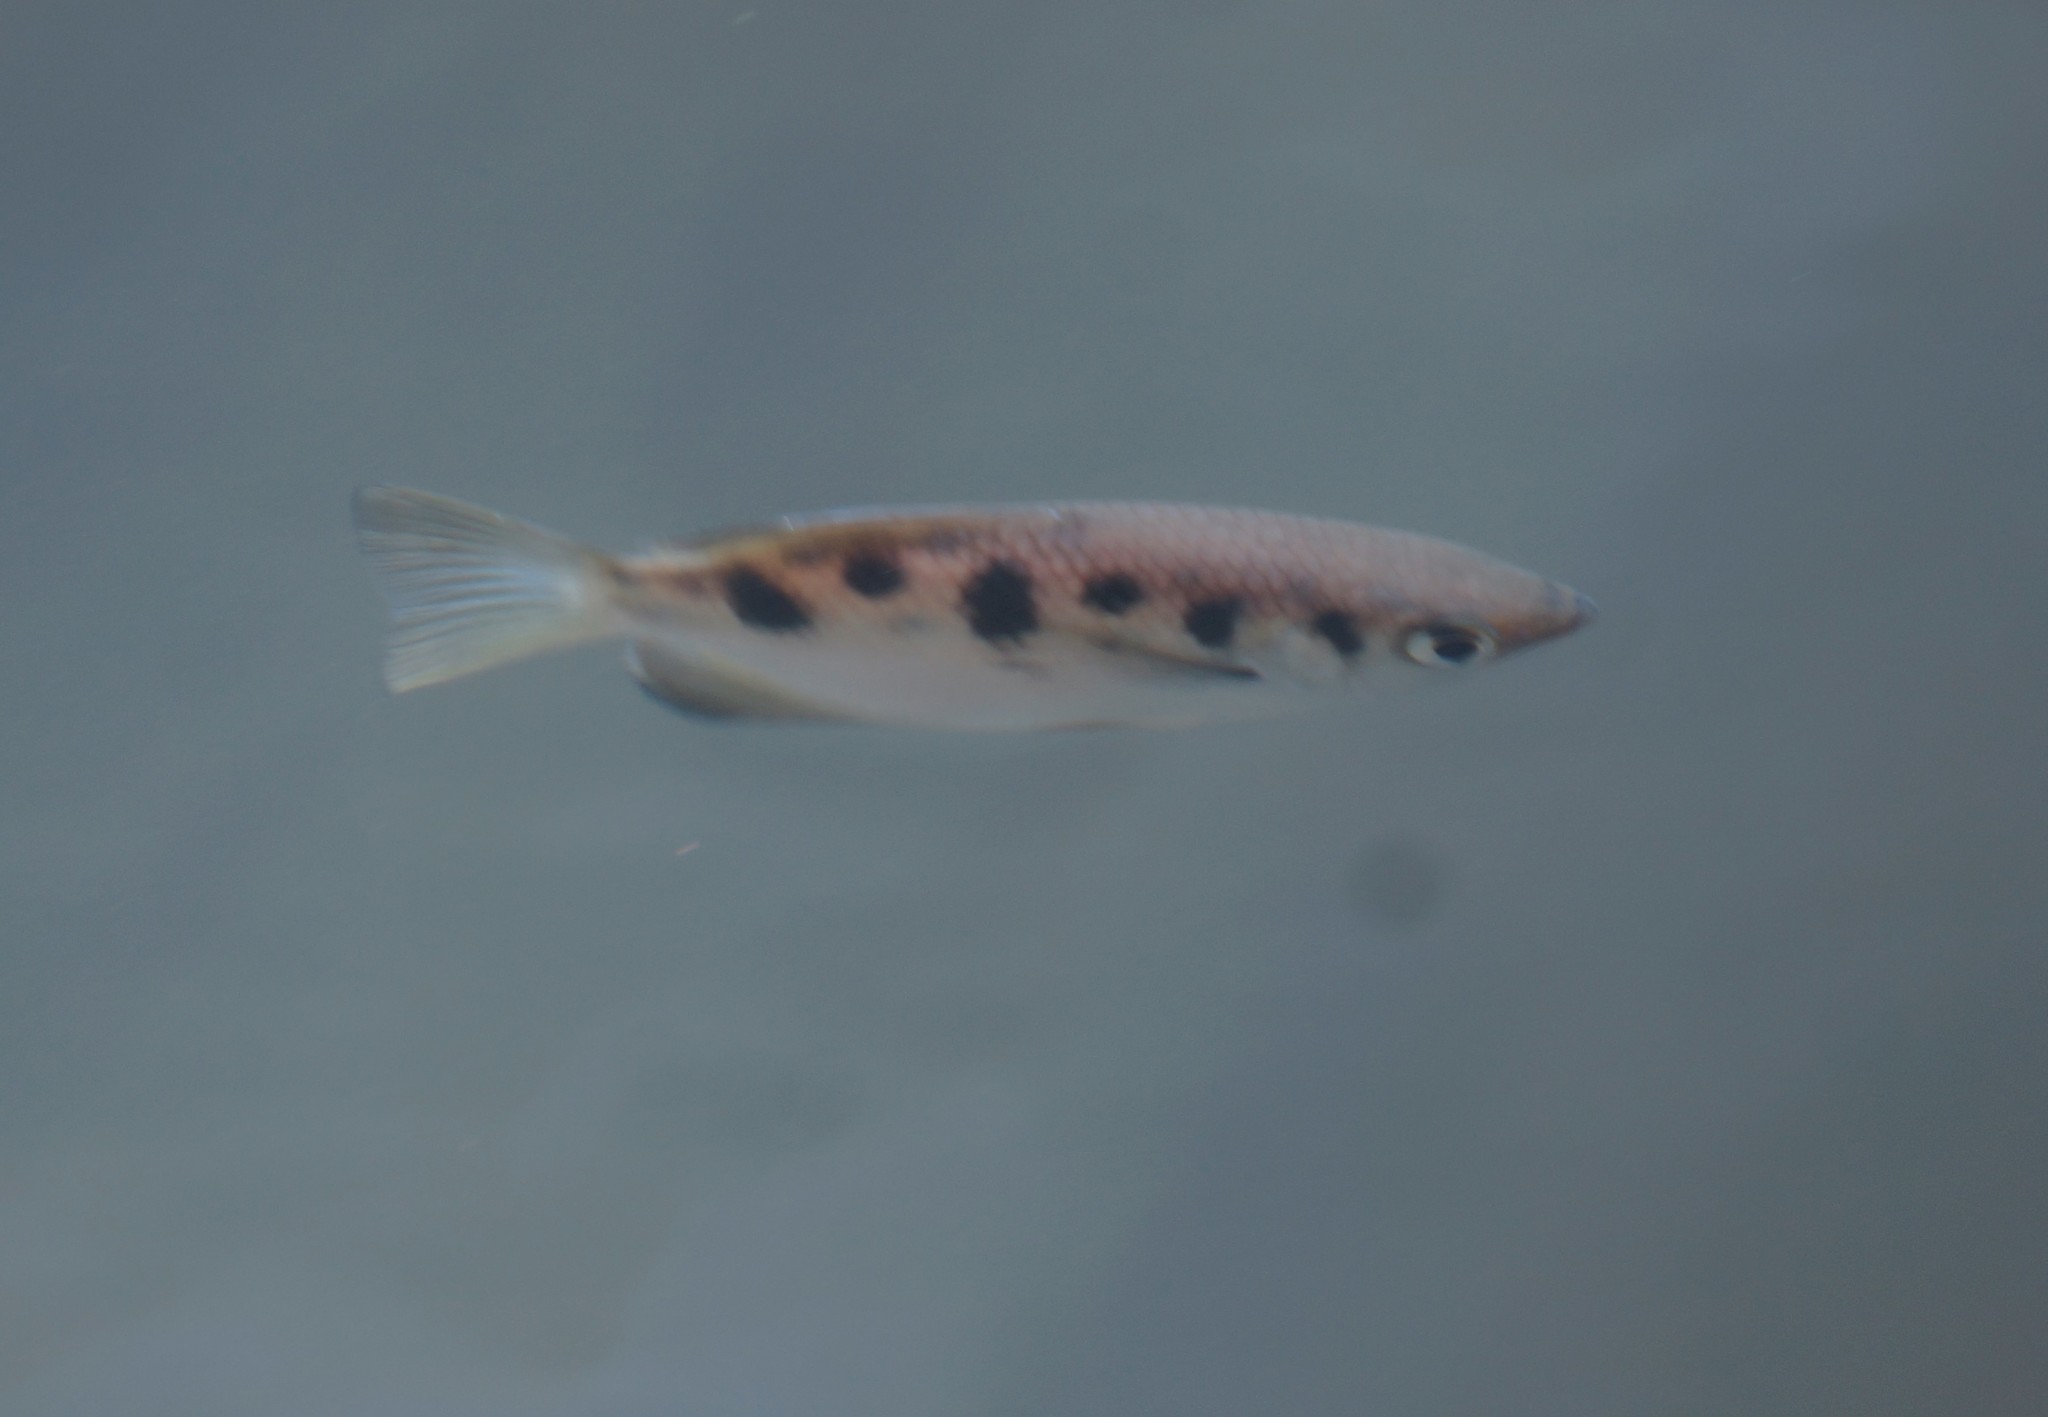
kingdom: Animalia
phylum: Chordata
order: Perciformes
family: Toxotidae
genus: Toxotes
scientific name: Toxotes chatareus
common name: Spotted archerfish
